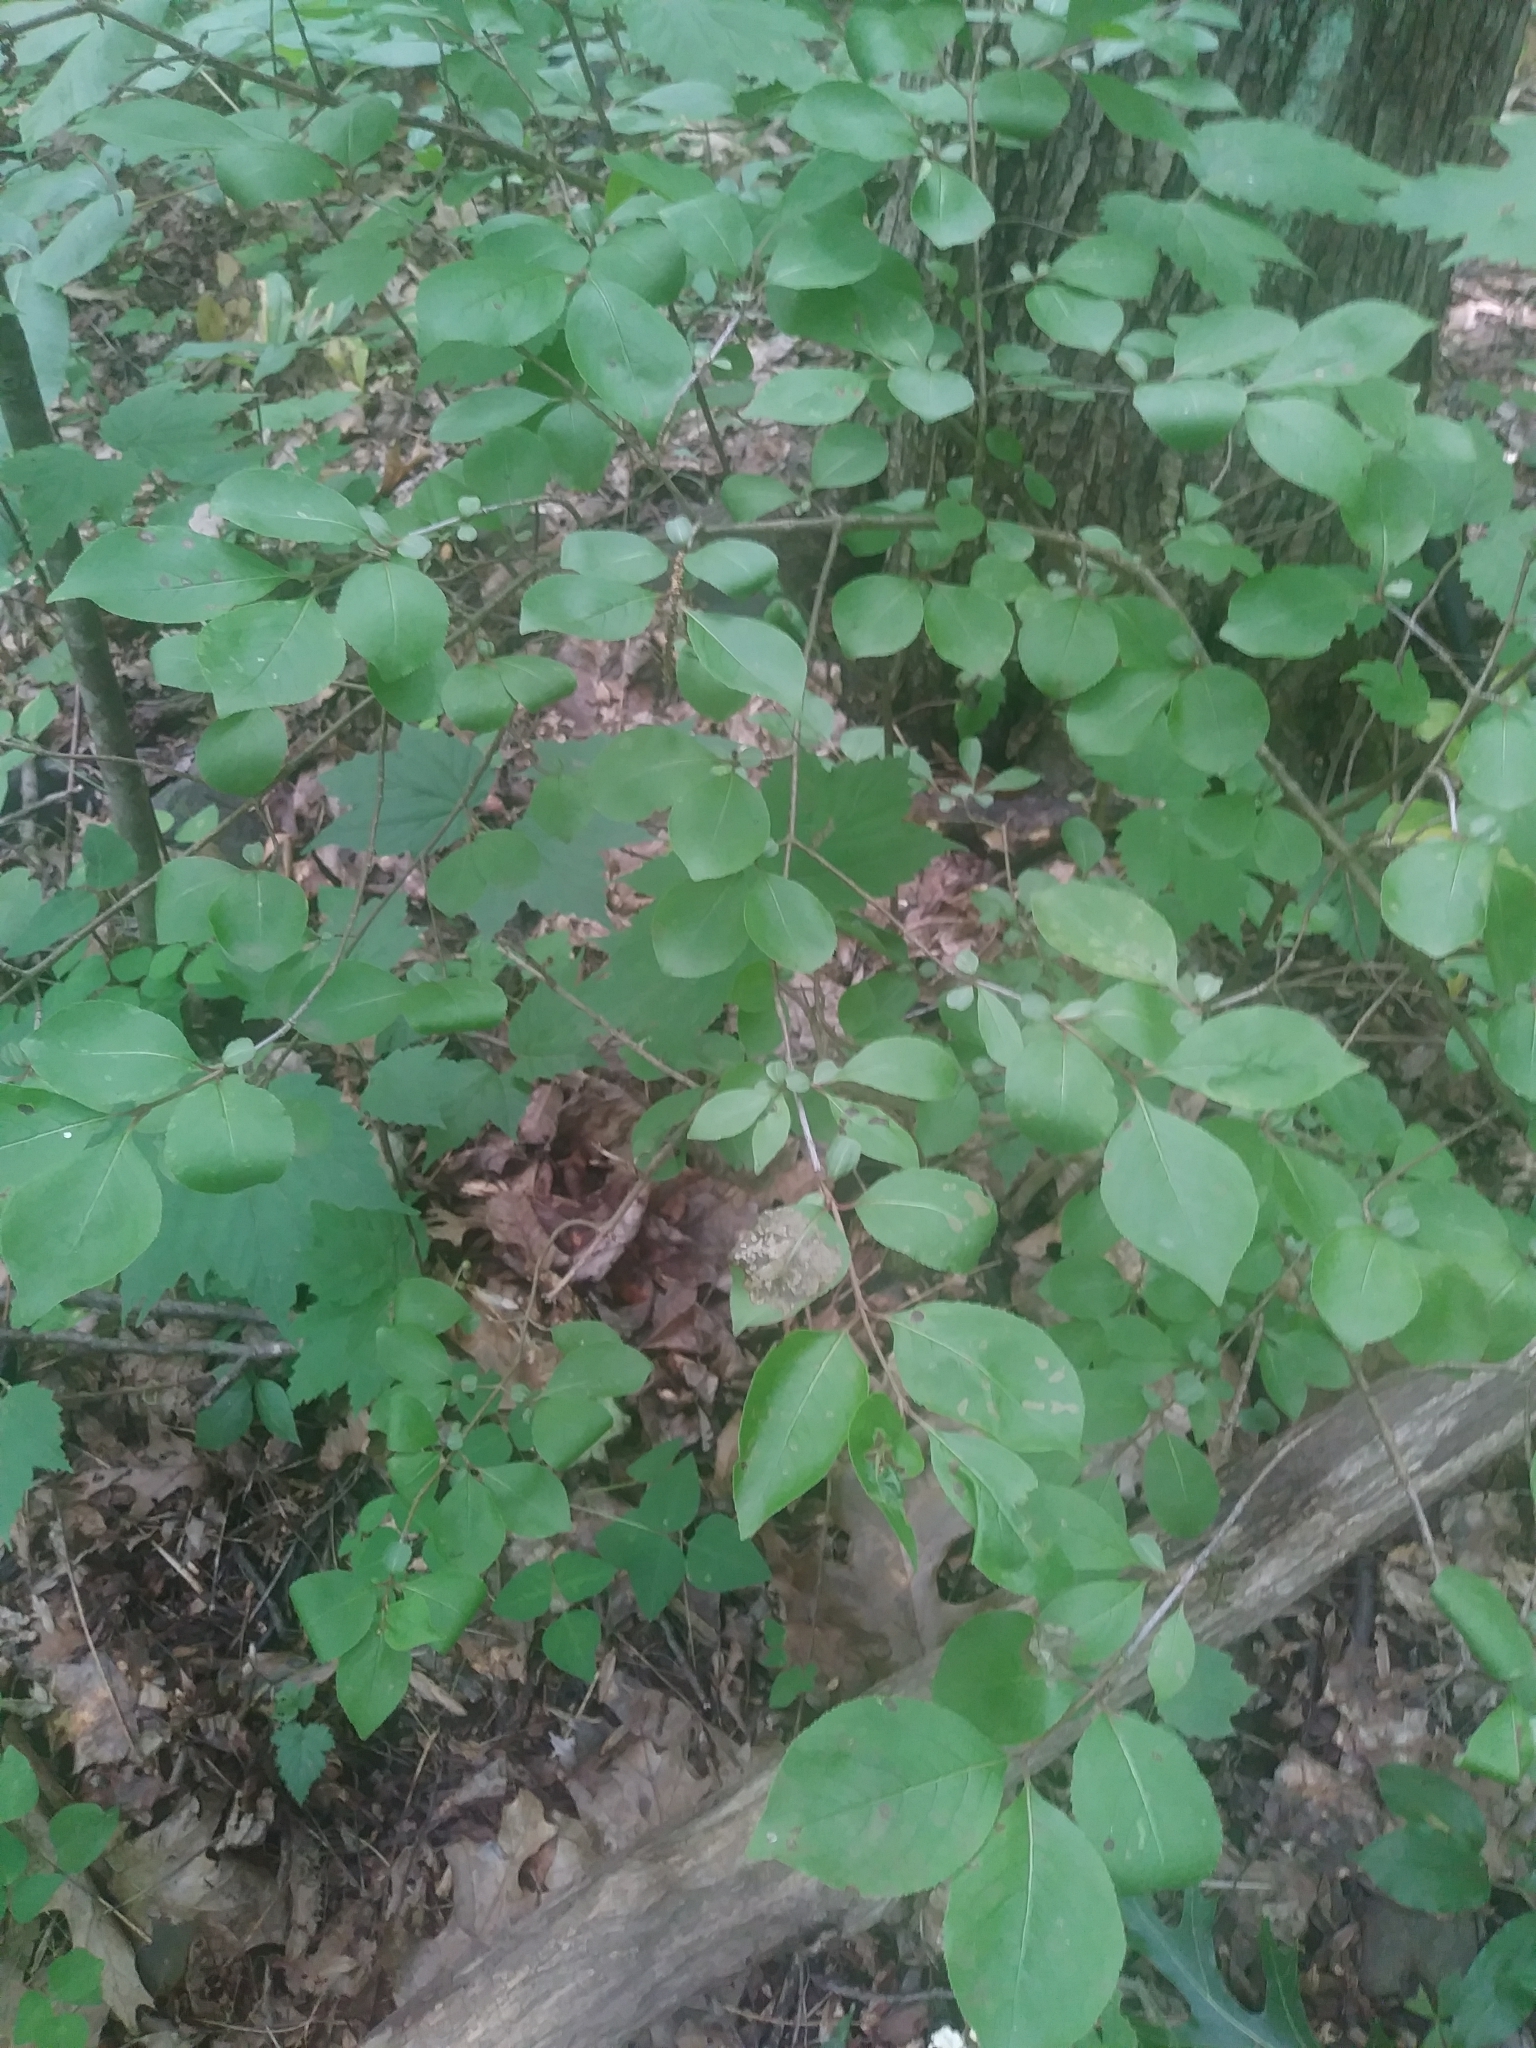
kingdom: Plantae
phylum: Tracheophyta
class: Magnoliopsida
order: Dipsacales
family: Viburnaceae
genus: Viburnum
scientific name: Viburnum prunifolium
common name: Black haw
